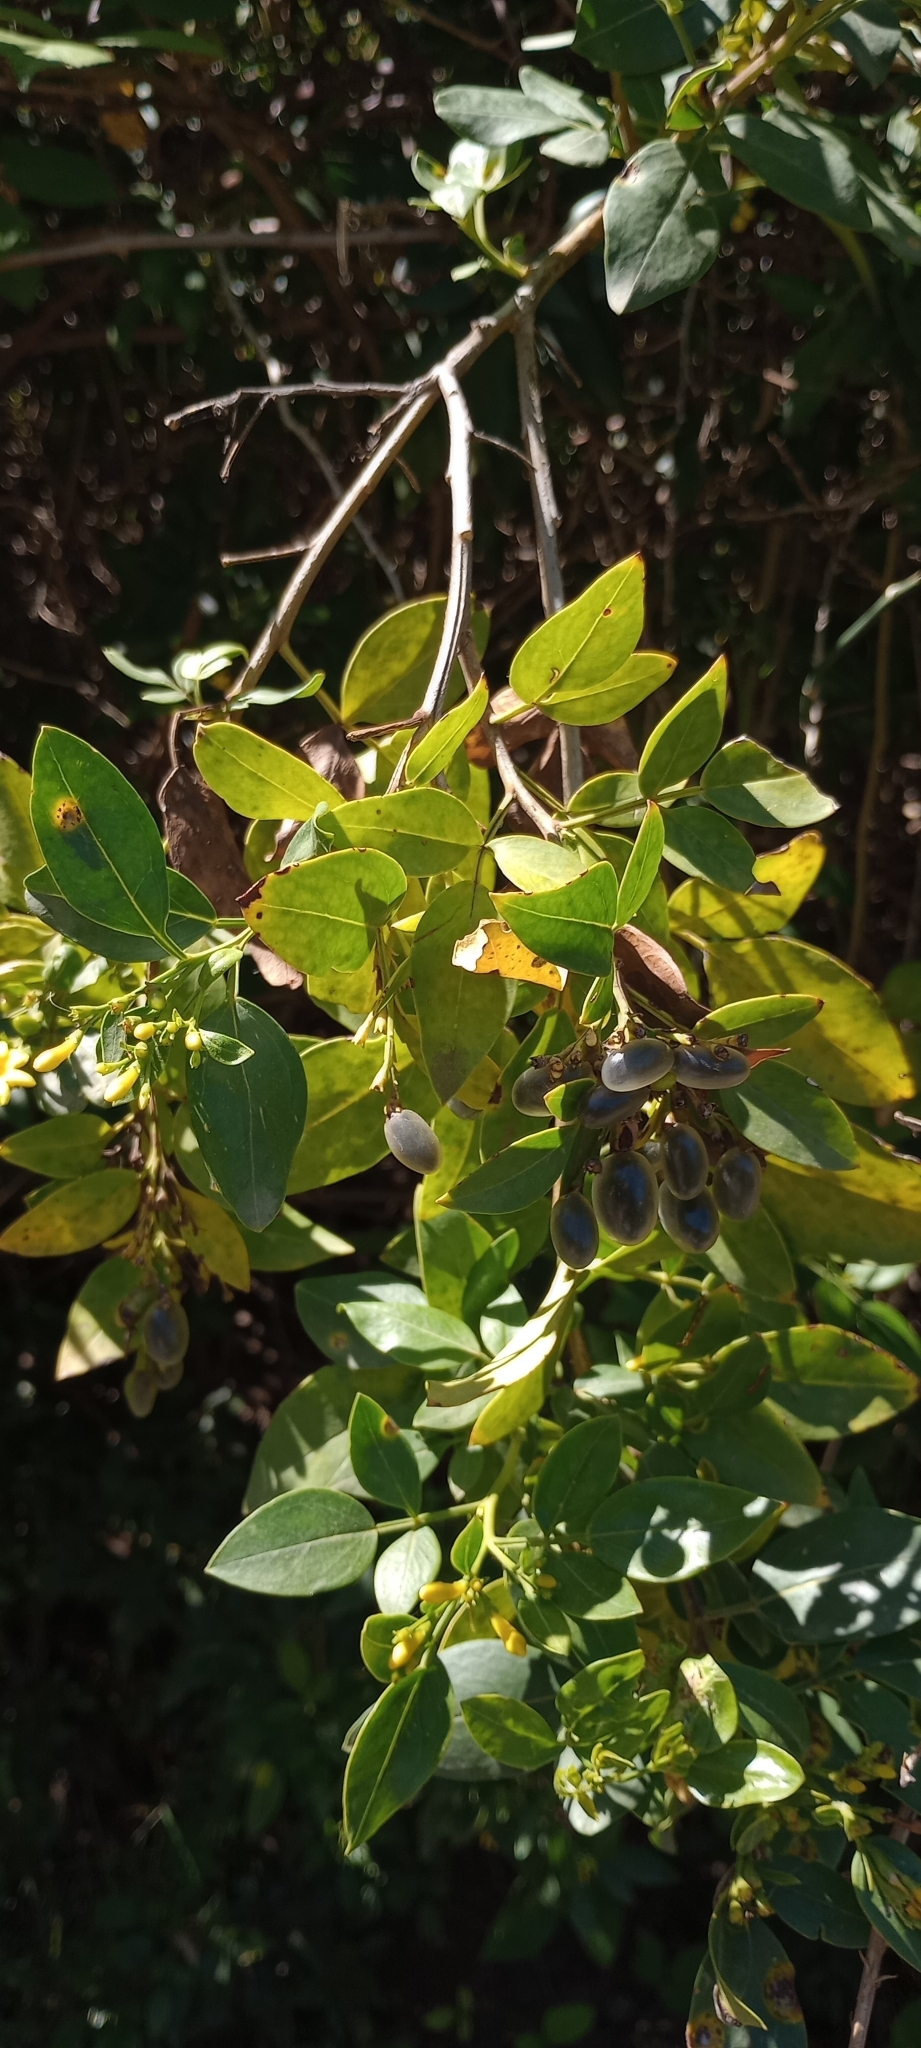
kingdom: Plantae
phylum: Tracheophyta
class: Magnoliopsida
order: Lamiales
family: Oleaceae
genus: Chrysojasminum
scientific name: Chrysojasminum odoratissimum
